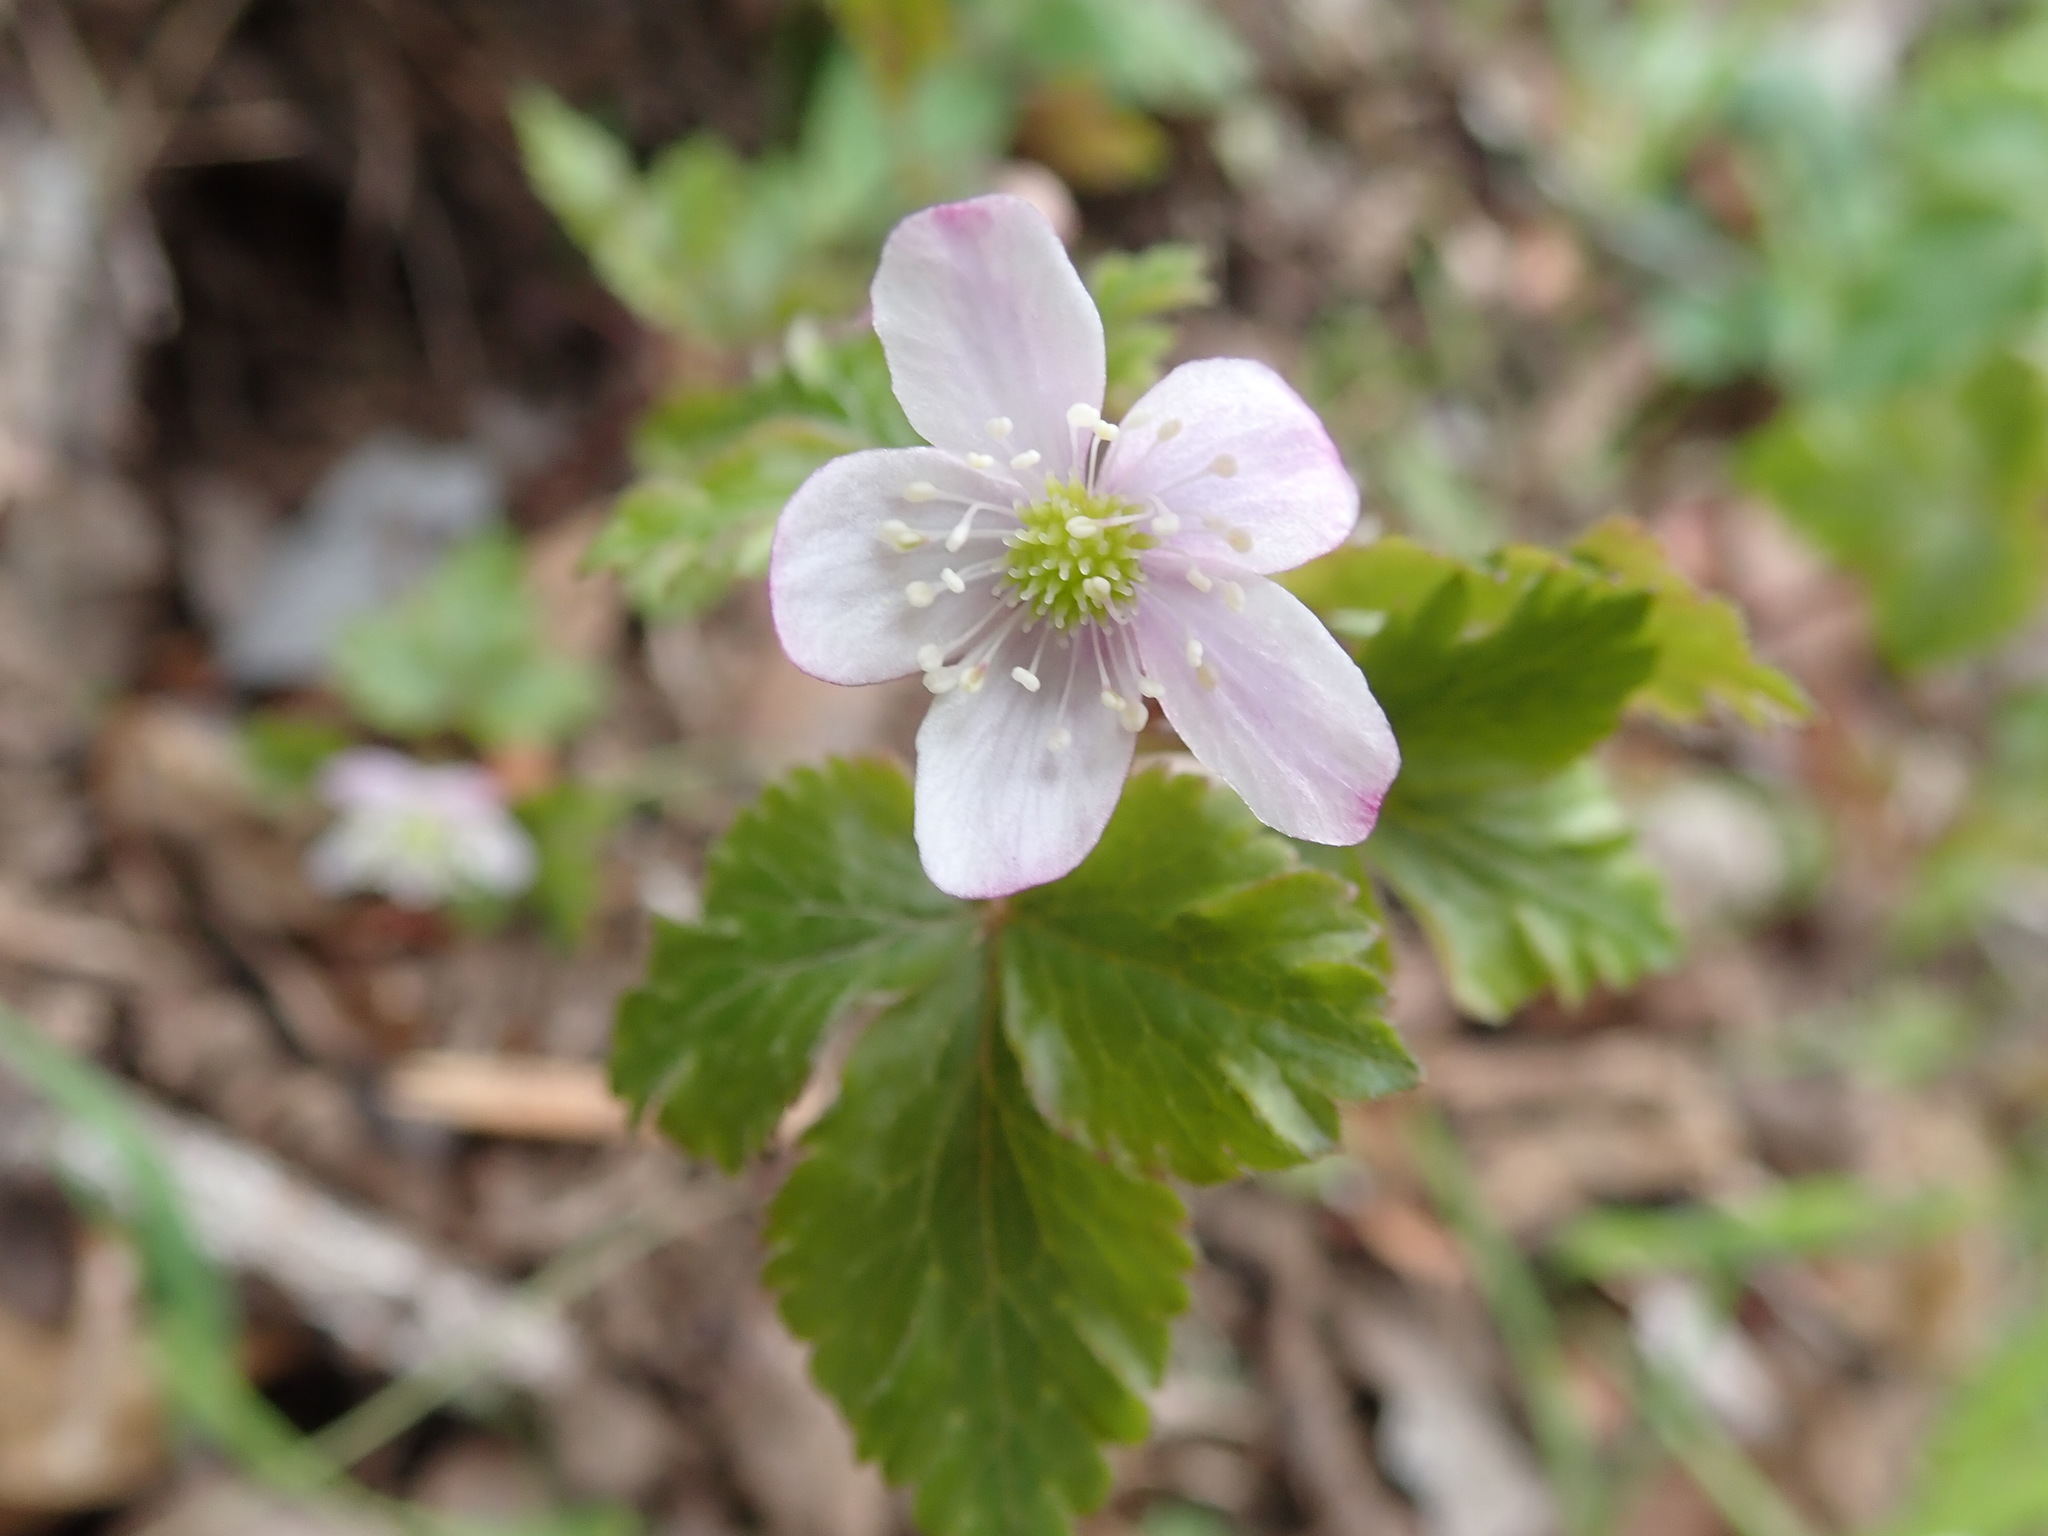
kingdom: Plantae
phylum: Tracheophyta
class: Magnoliopsida
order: Ranunculales
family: Ranunculaceae
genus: Anemone
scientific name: Anemone
